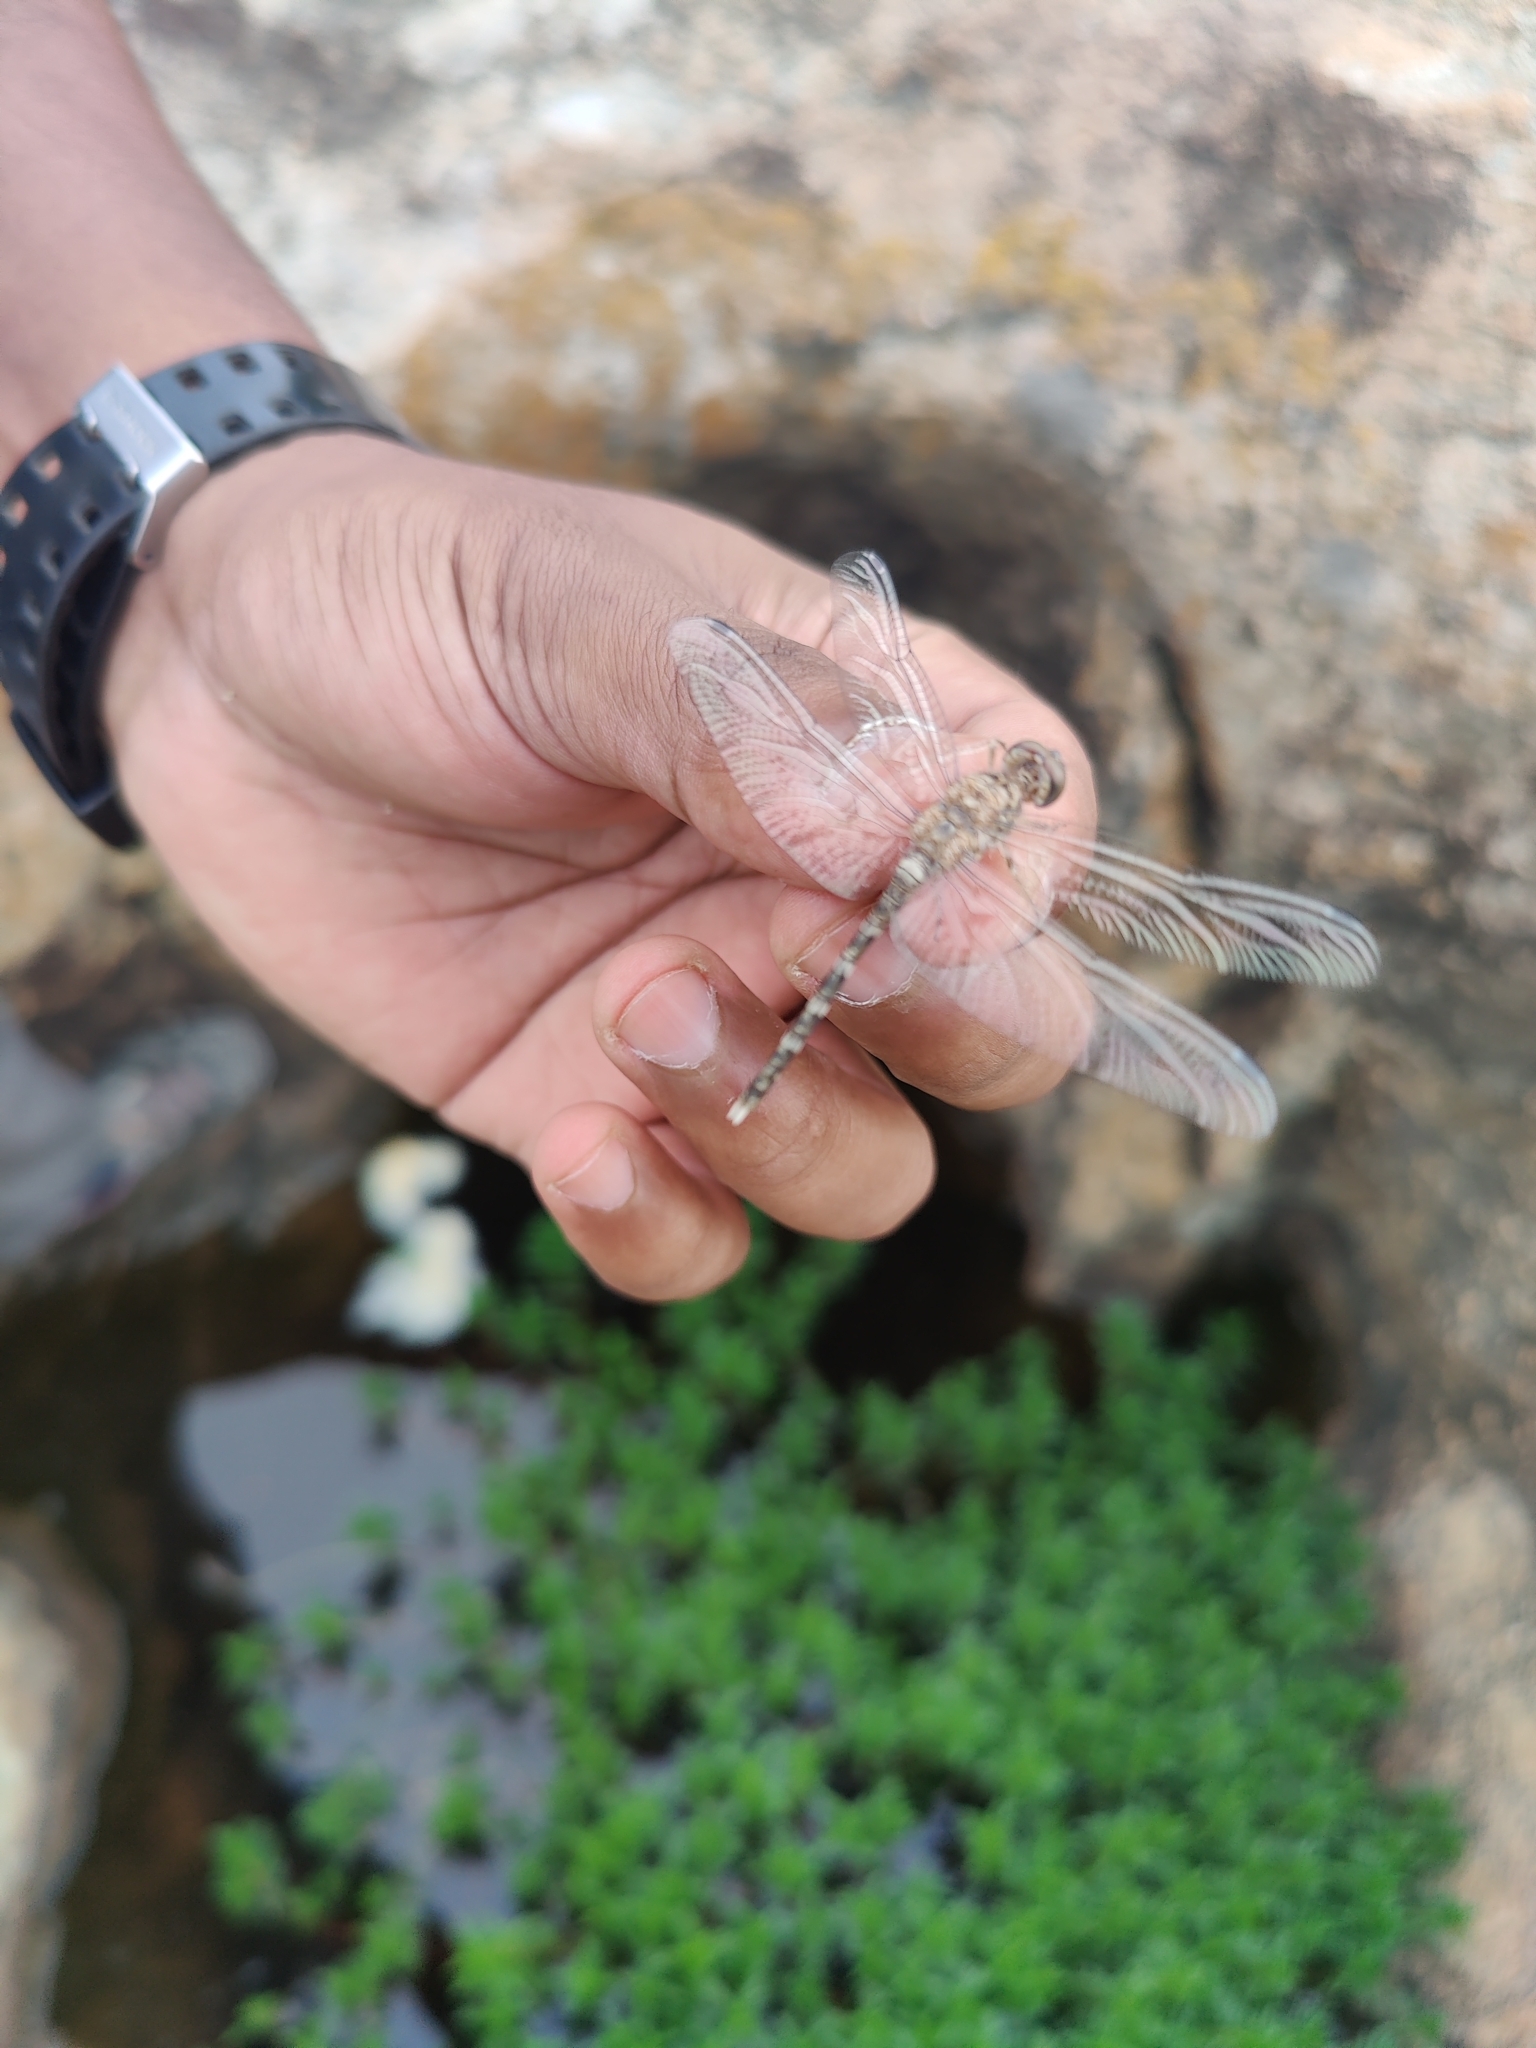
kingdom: Animalia
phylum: Arthropoda
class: Insecta
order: Odonata
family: Libellulidae
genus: Bradinopyga
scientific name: Bradinopyga geminata
